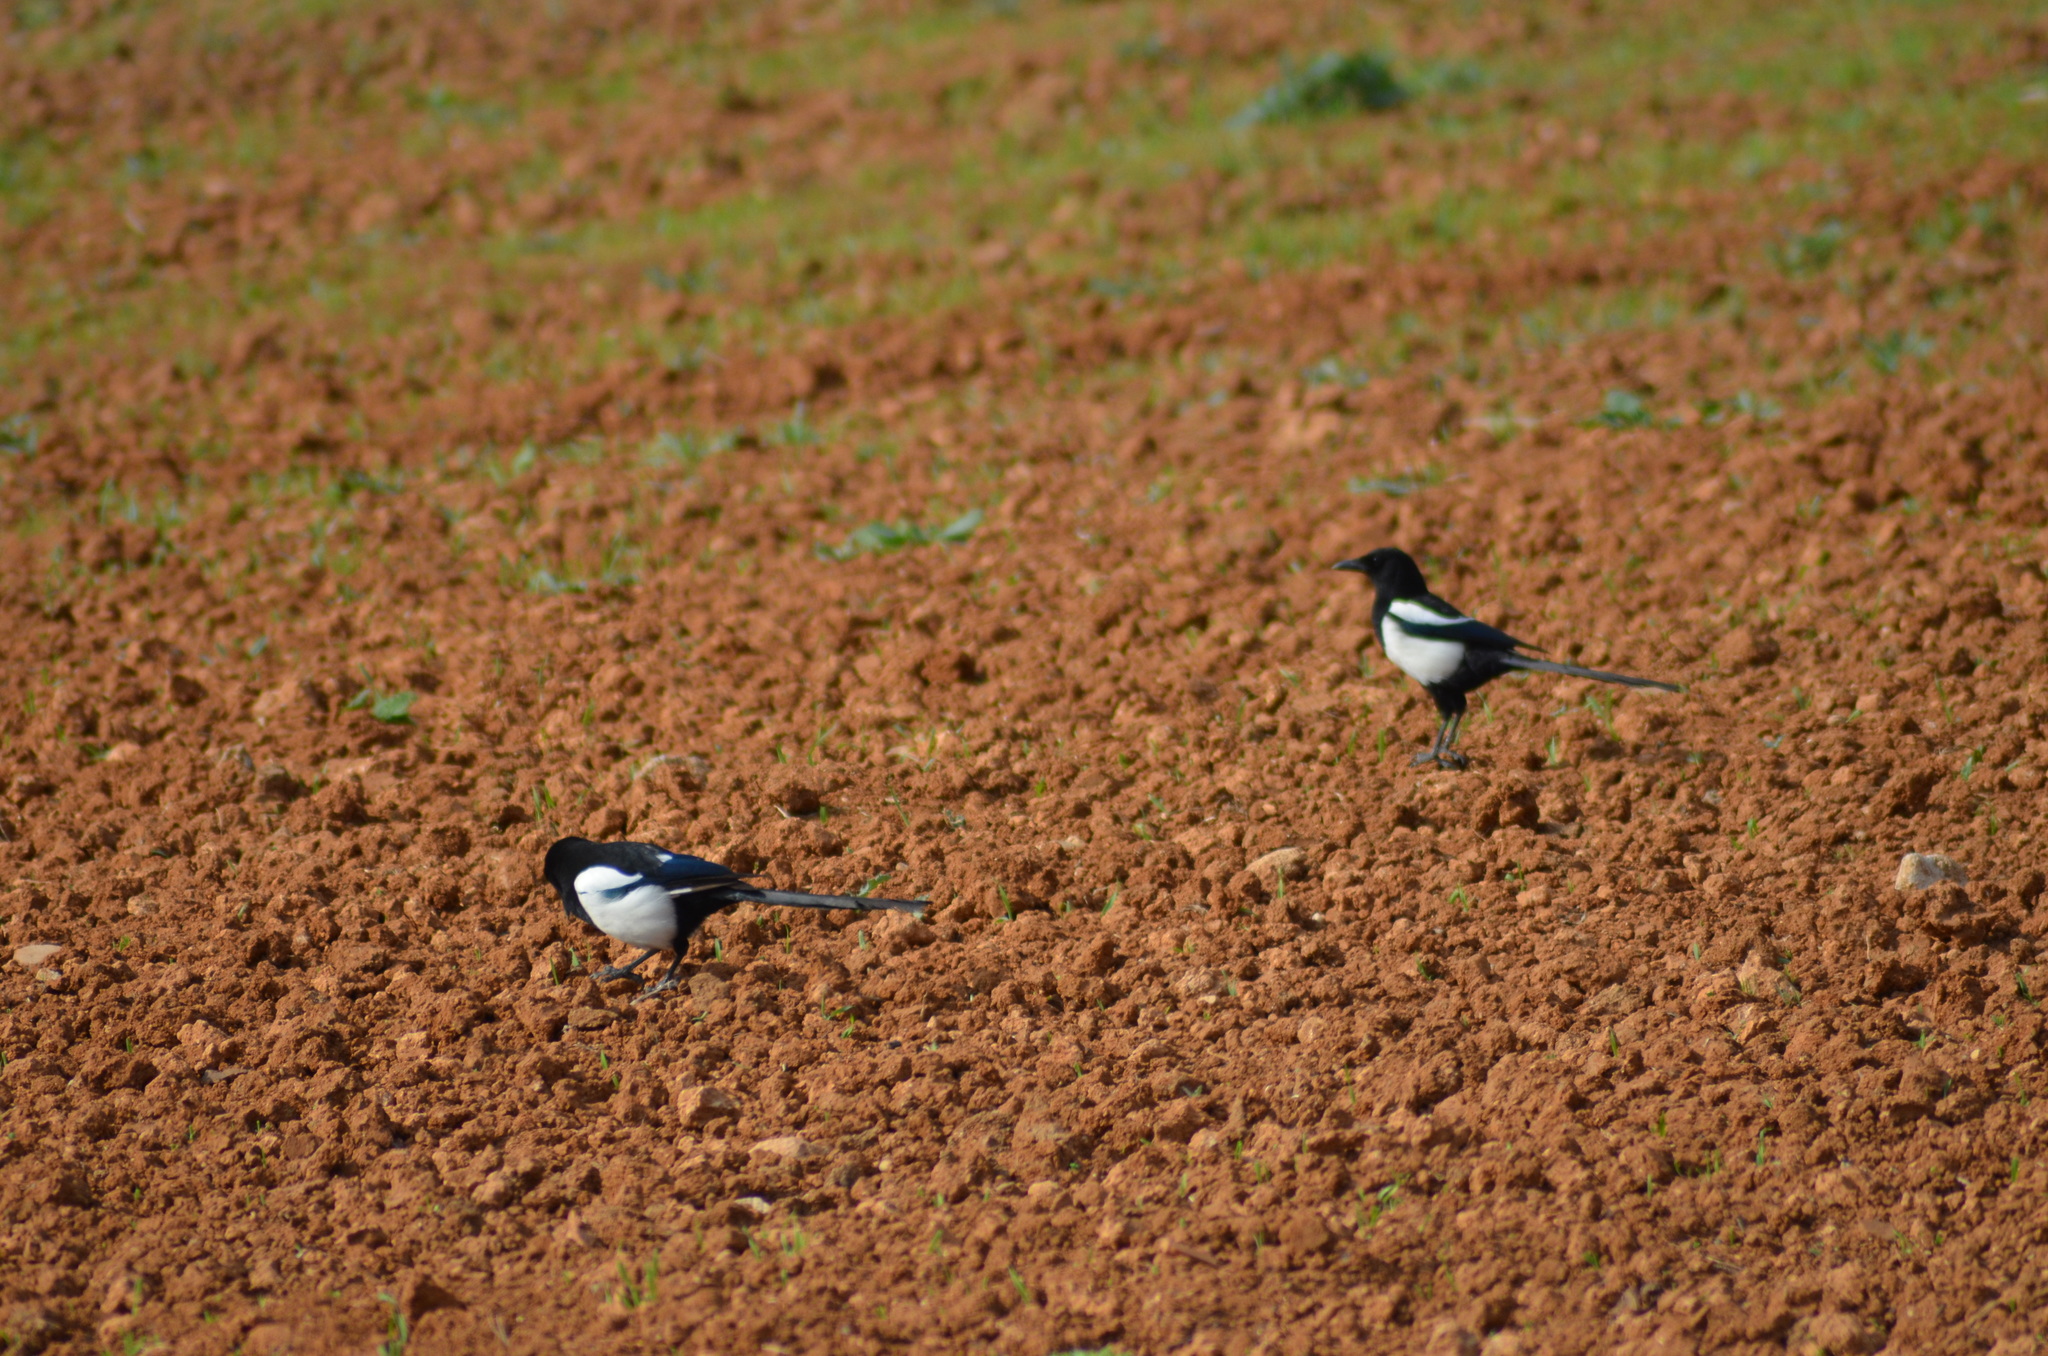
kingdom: Animalia
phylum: Chordata
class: Aves
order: Passeriformes
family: Corvidae
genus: Pica
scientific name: Pica pica
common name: Eurasian magpie
